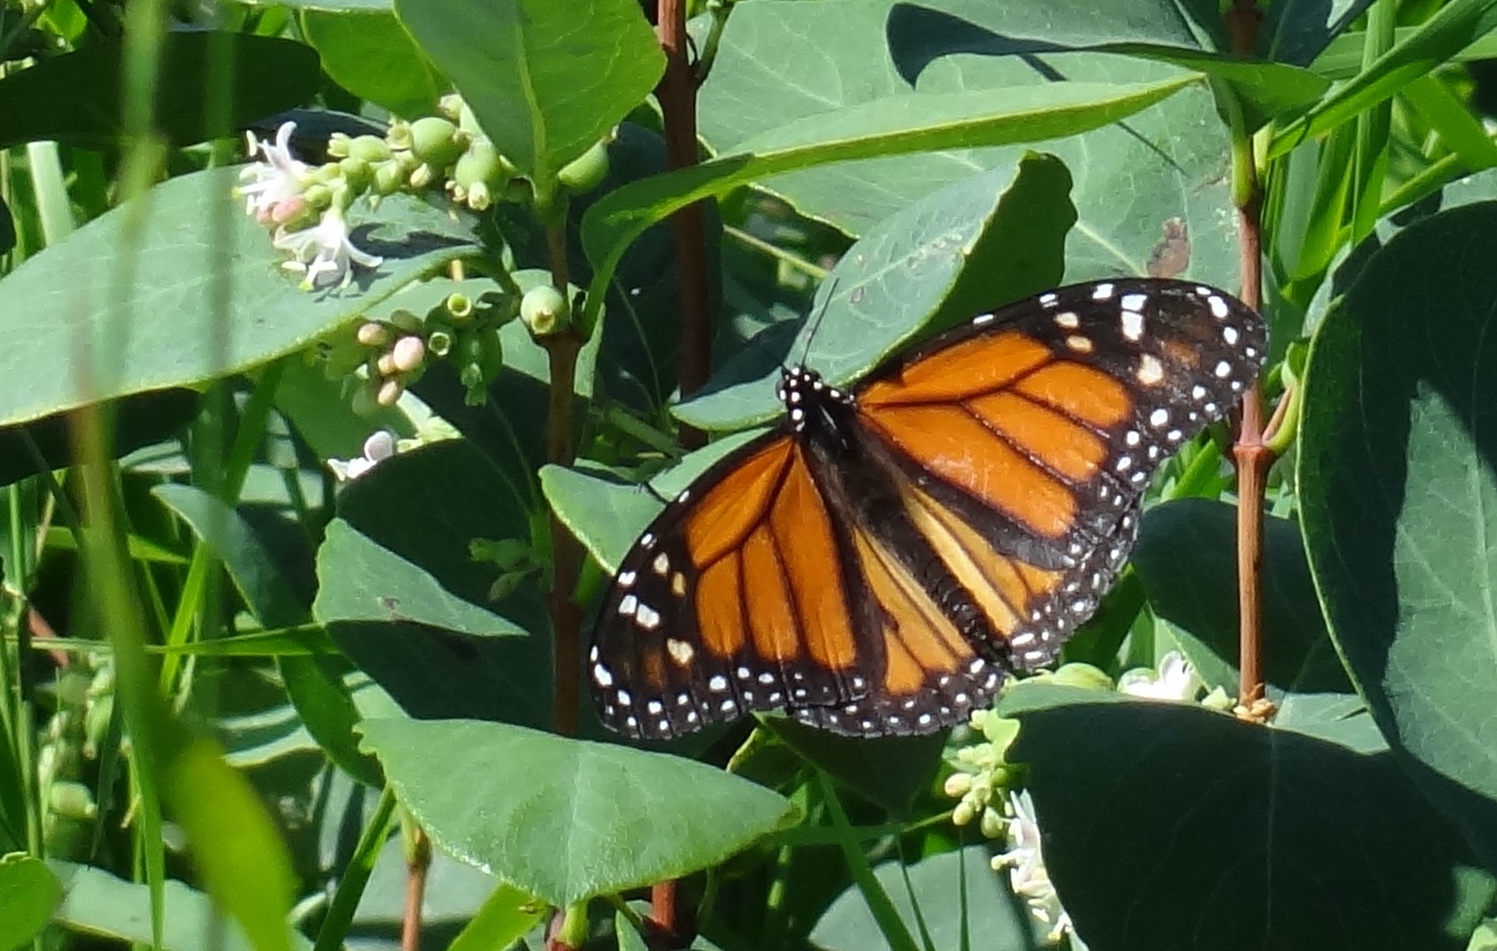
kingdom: Animalia
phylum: Arthropoda
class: Insecta
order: Lepidoptera
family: Nymphalidae
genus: Danaus
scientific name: Danaus plexippus
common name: Monarch
